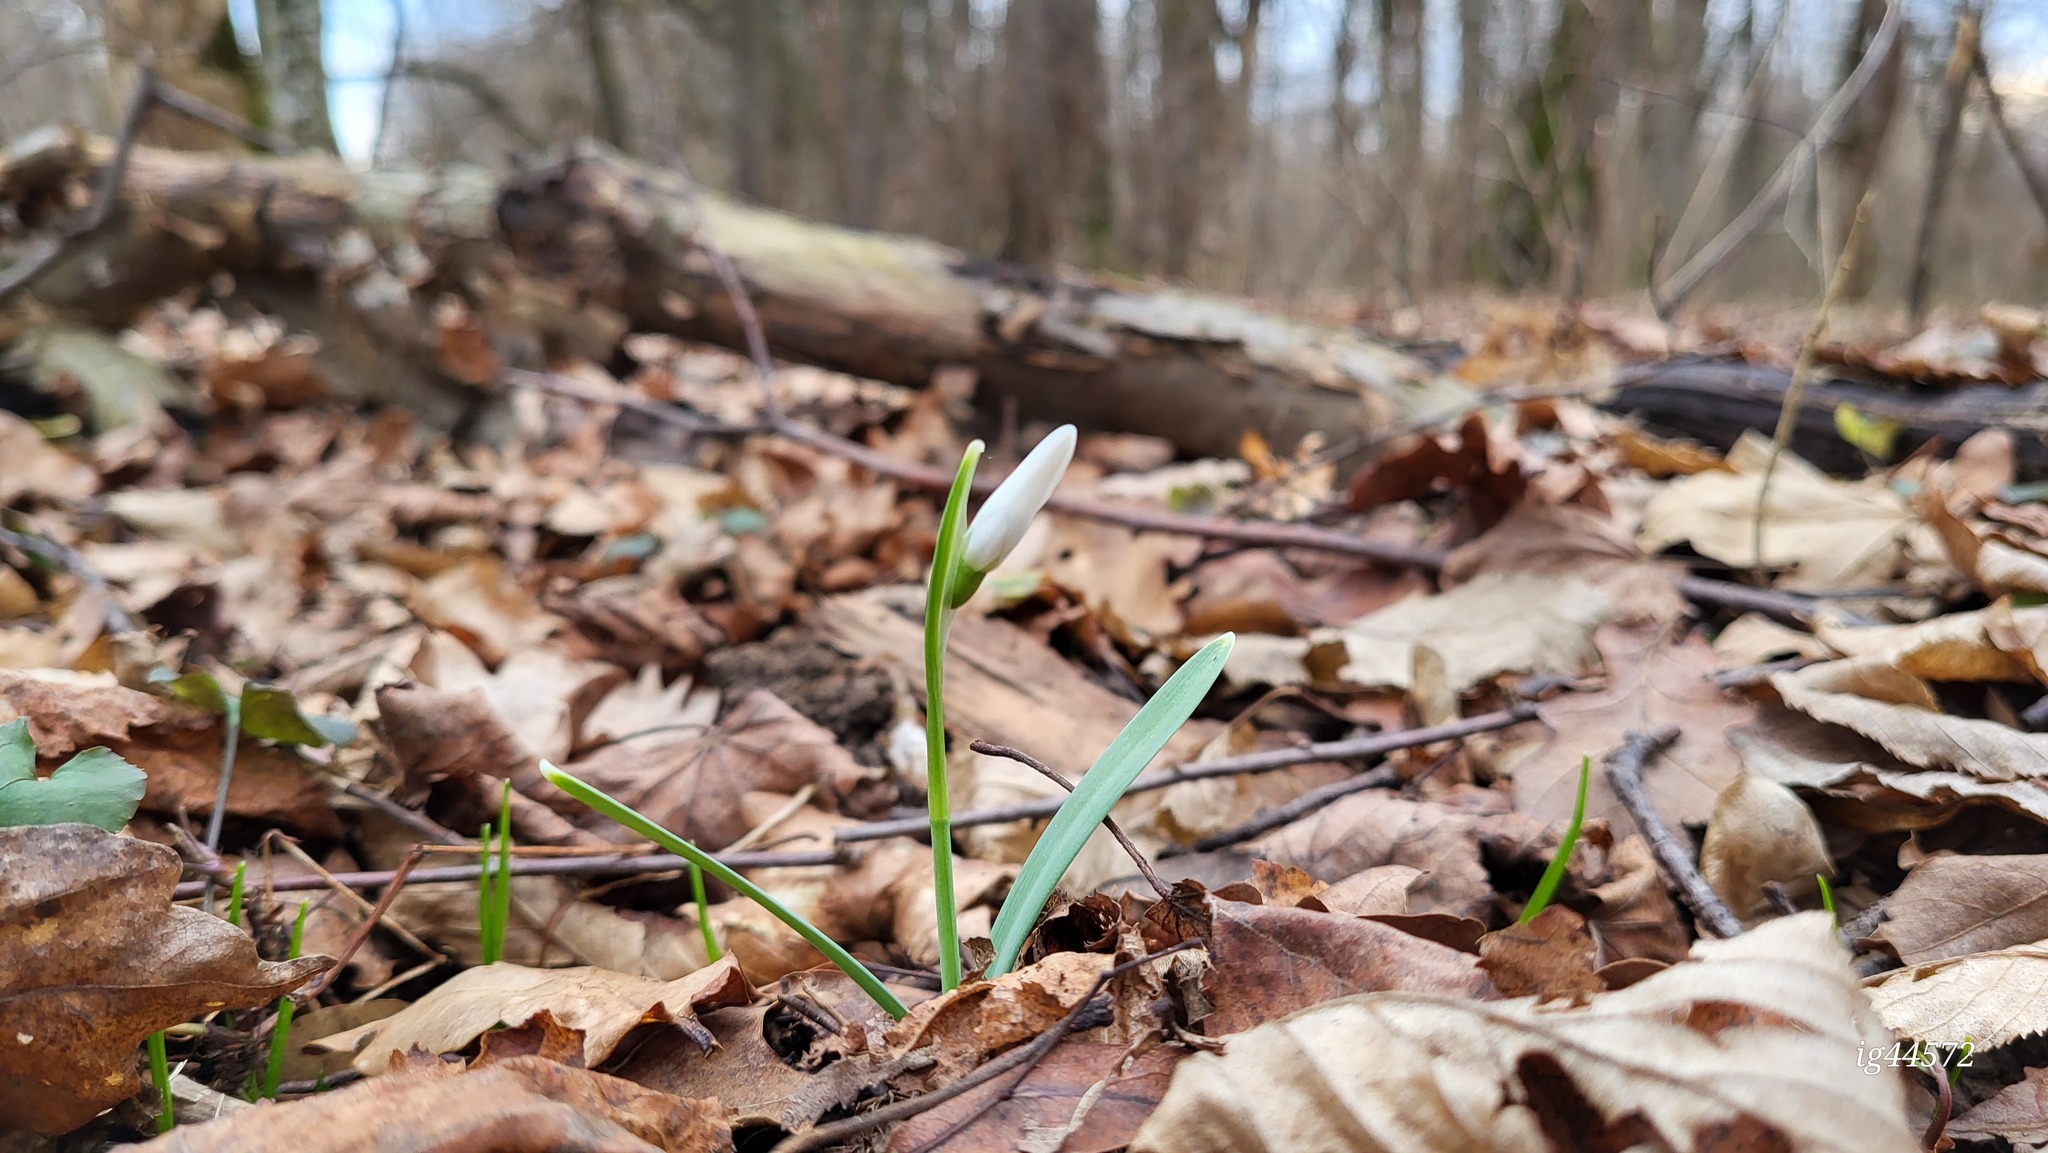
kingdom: Plantae
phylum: Tracheophyta
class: Liliopsida
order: Asparagales
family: Amaryllidaceae
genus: Galanthus
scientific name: Galanthus nivalis
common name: Snowdrop
